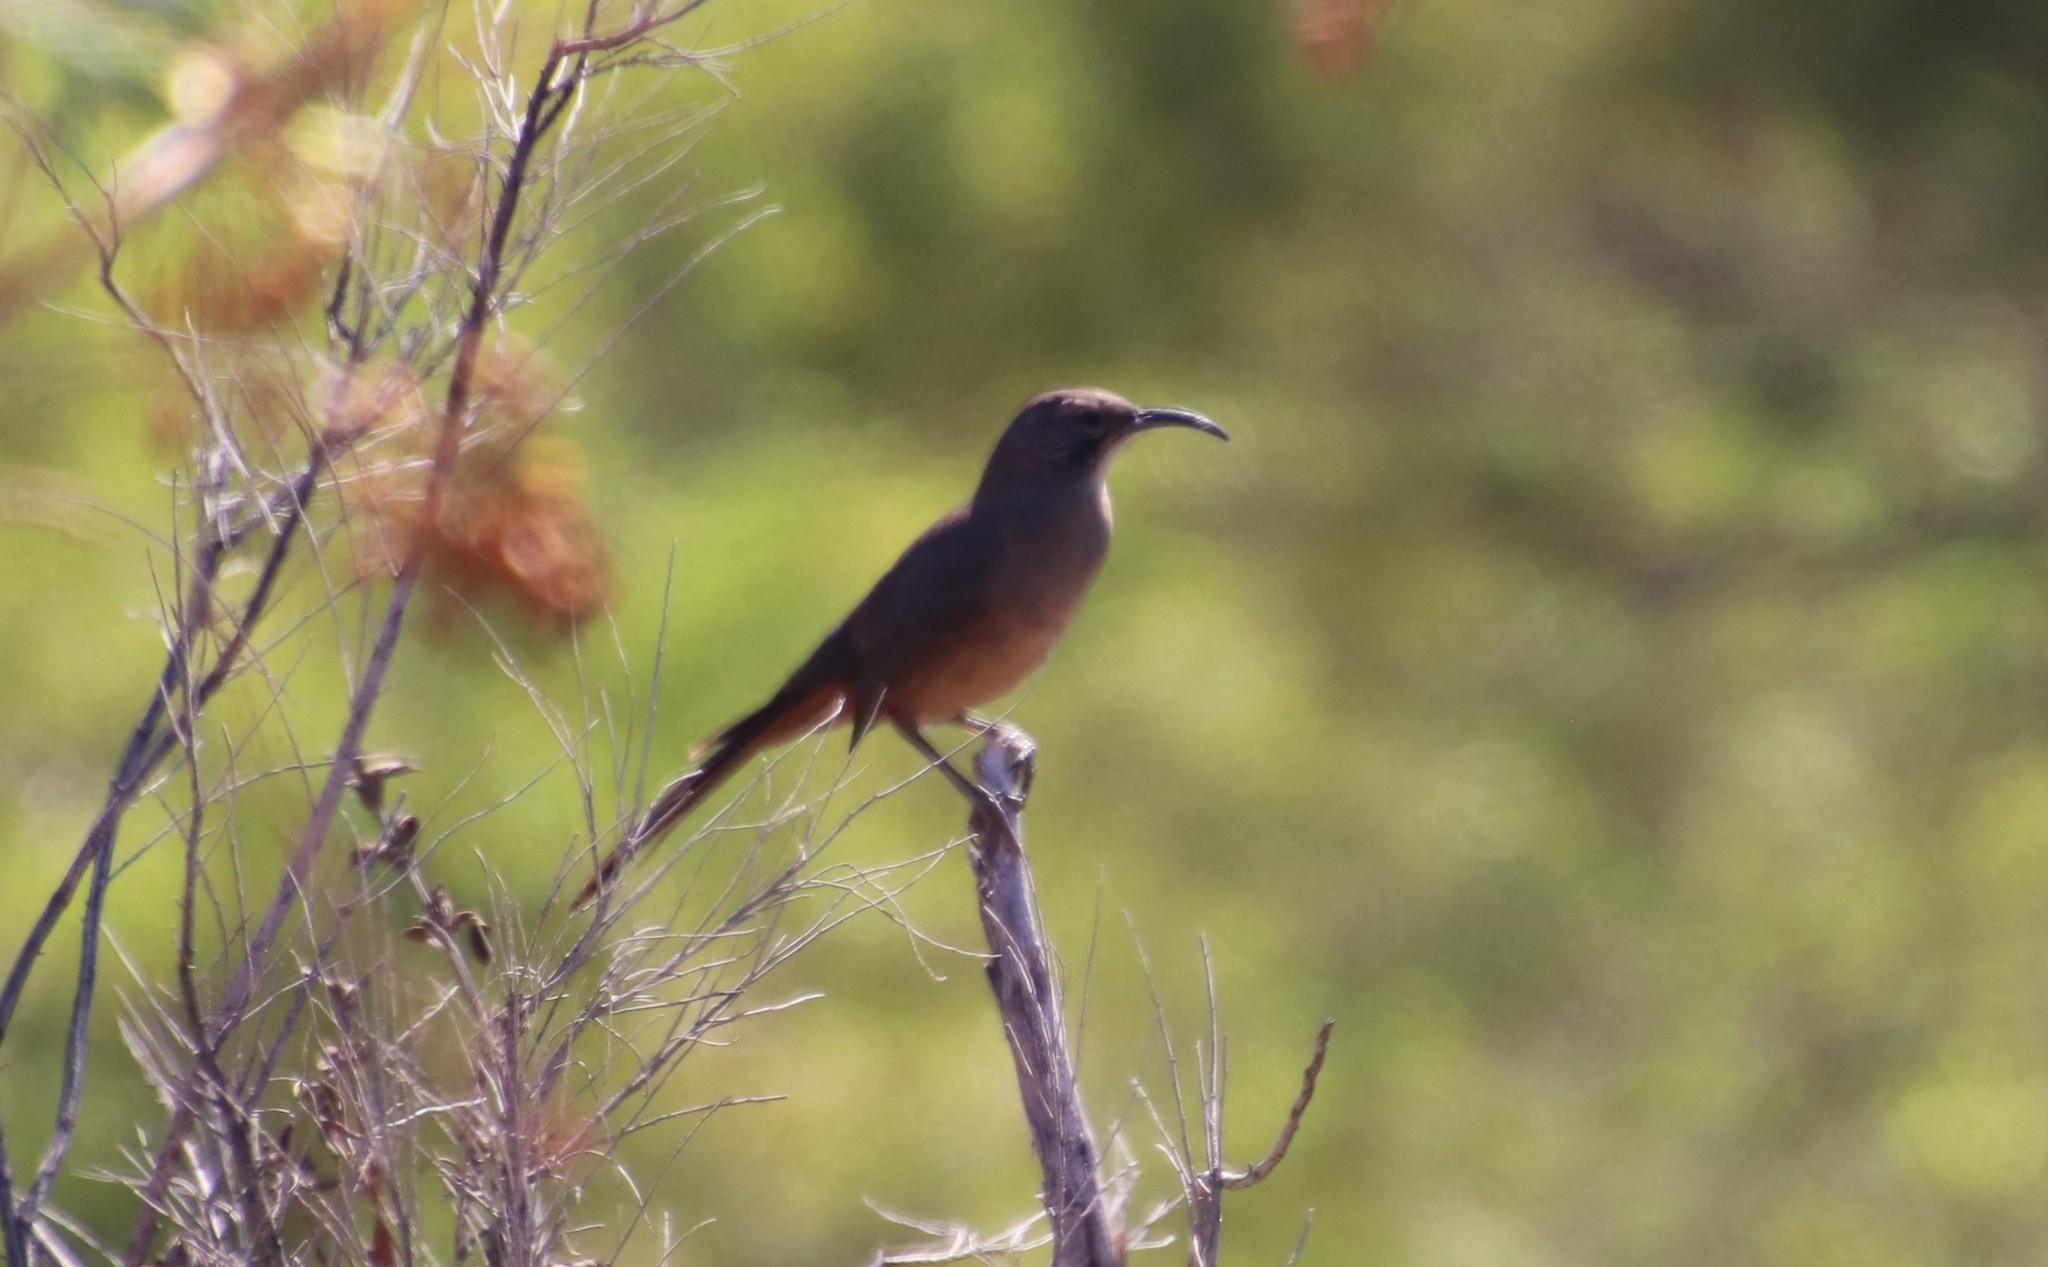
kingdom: Animalia
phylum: Chordata
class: Aves
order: Passeriformes
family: Mimidae
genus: Toxostoma
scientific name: Toxostoma redivivum
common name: California thrasher
